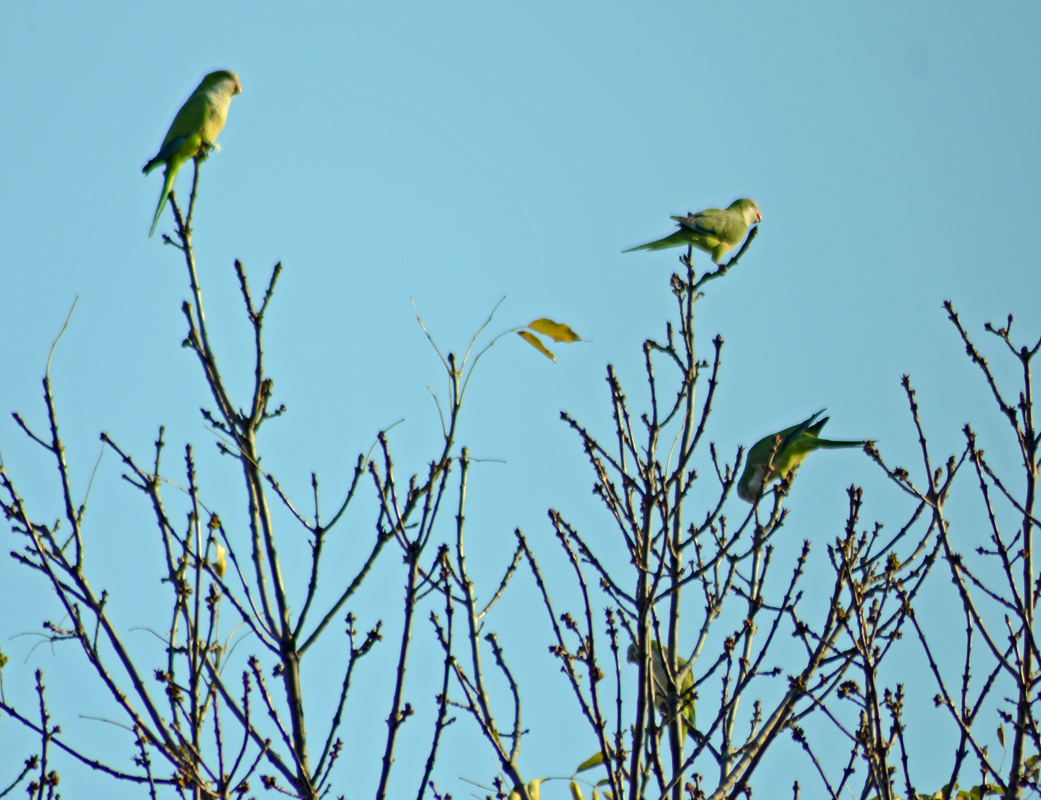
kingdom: Animalia
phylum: Chordata
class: Aves
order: Psittaciformes
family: Psittacidae
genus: Myiopsitta
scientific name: Myiopsitta monachus
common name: Monk parakeet
